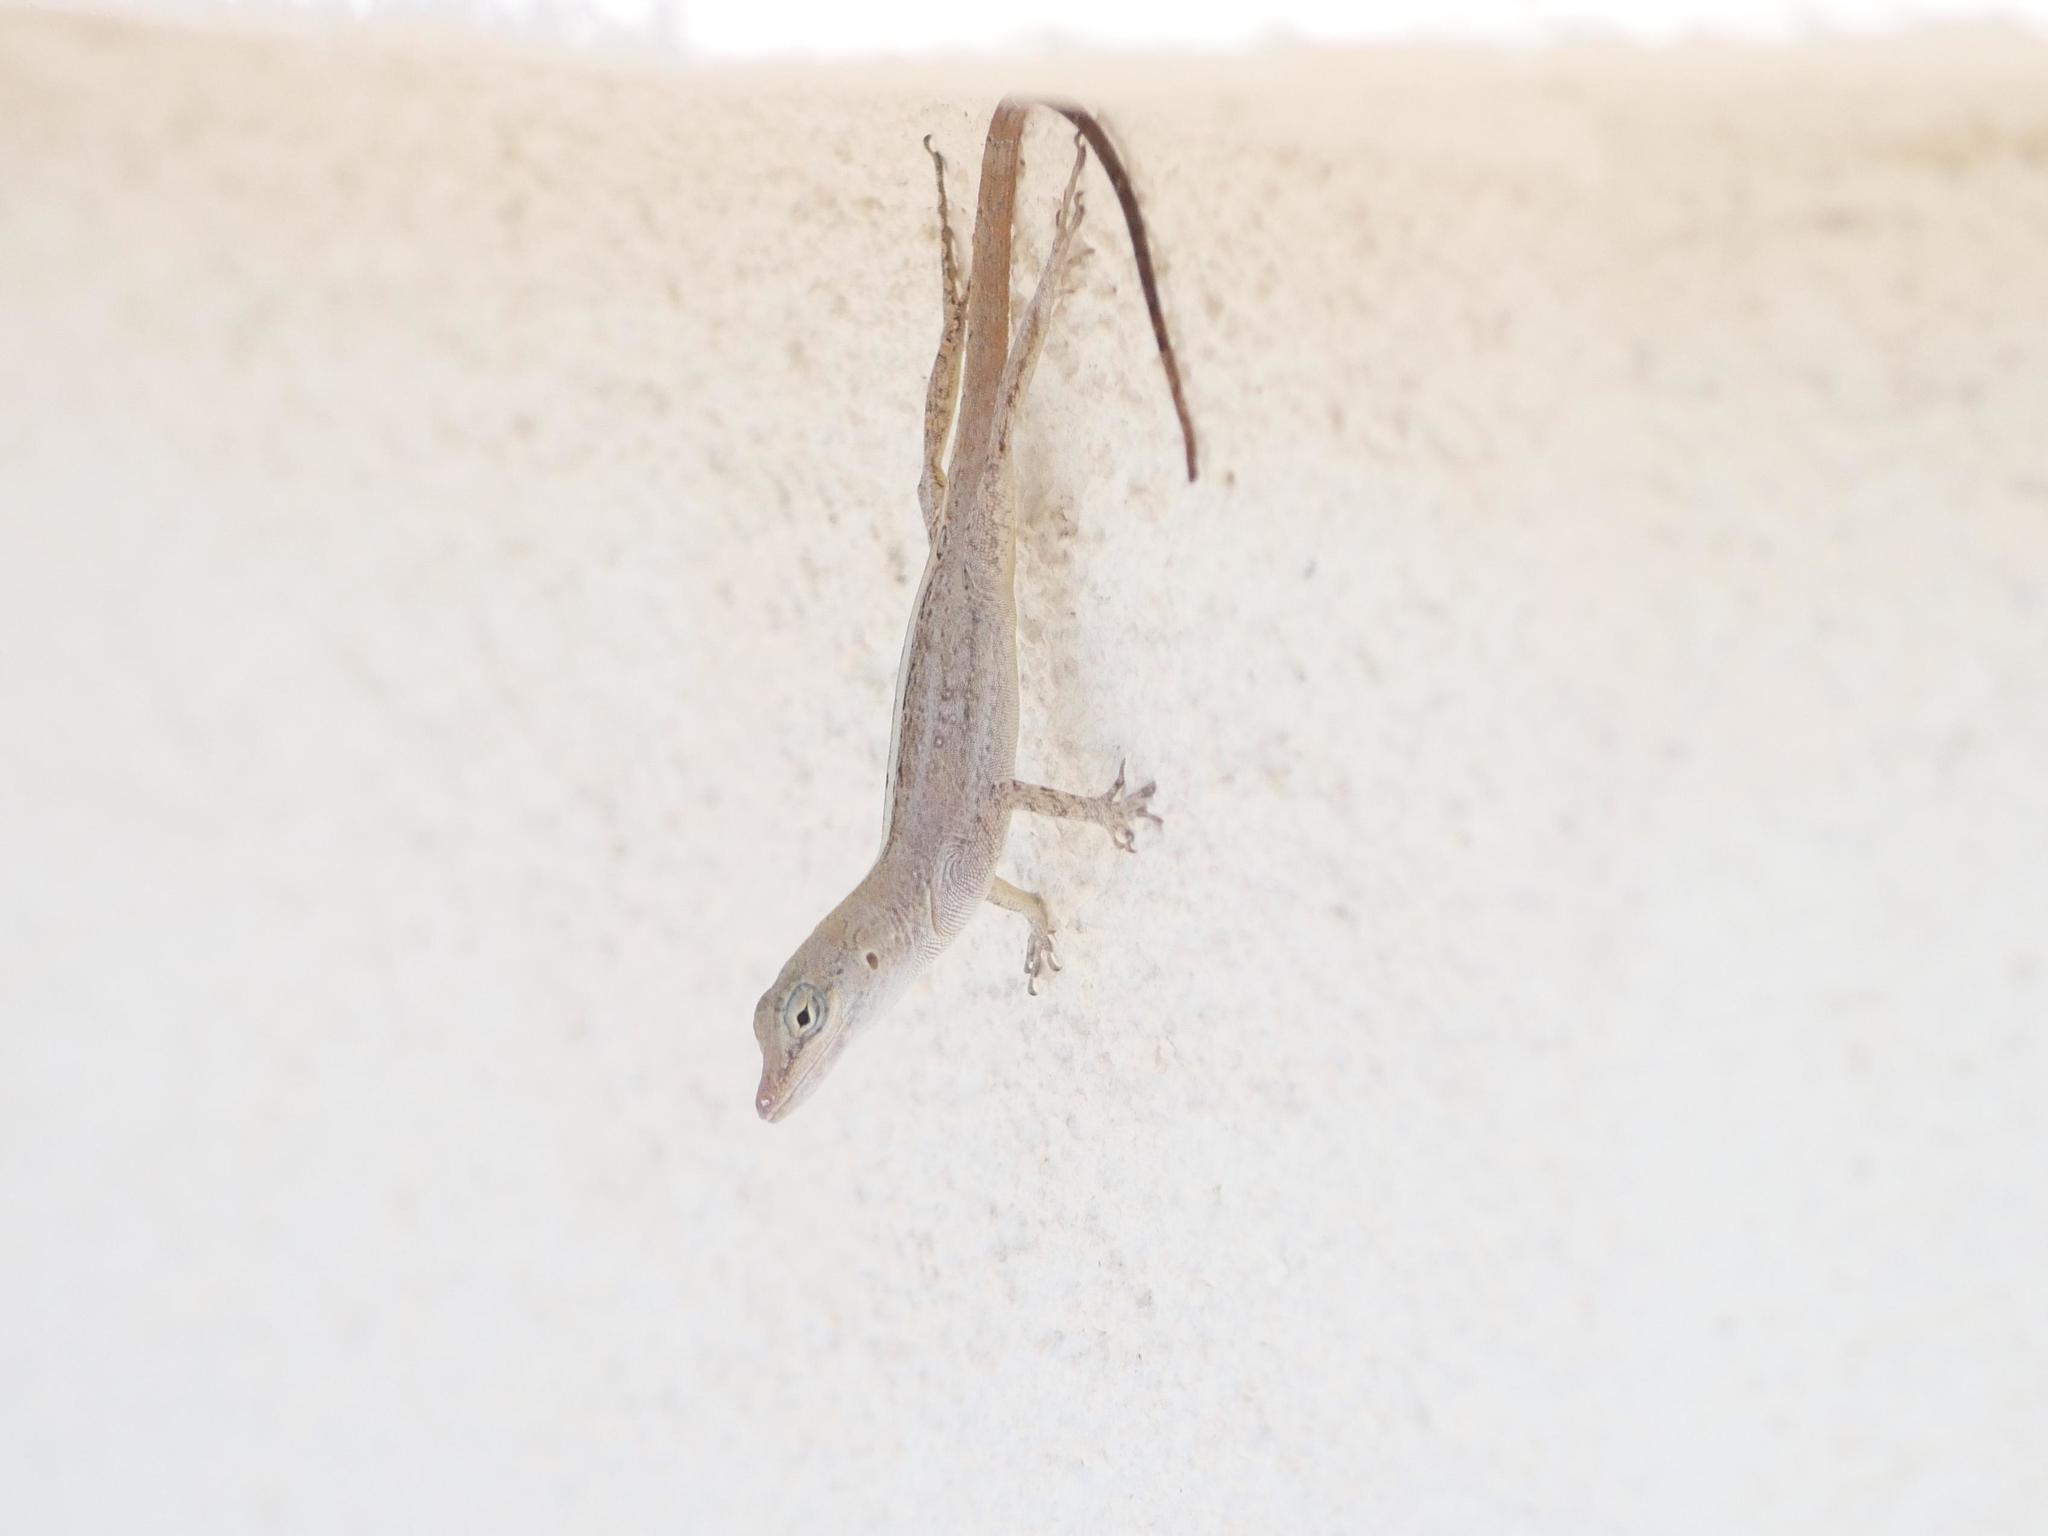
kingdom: Animalia
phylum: Chordata
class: Squamata
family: Dactyloidae
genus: Anolis
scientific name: Anolis scriptus
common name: Silver key anole
